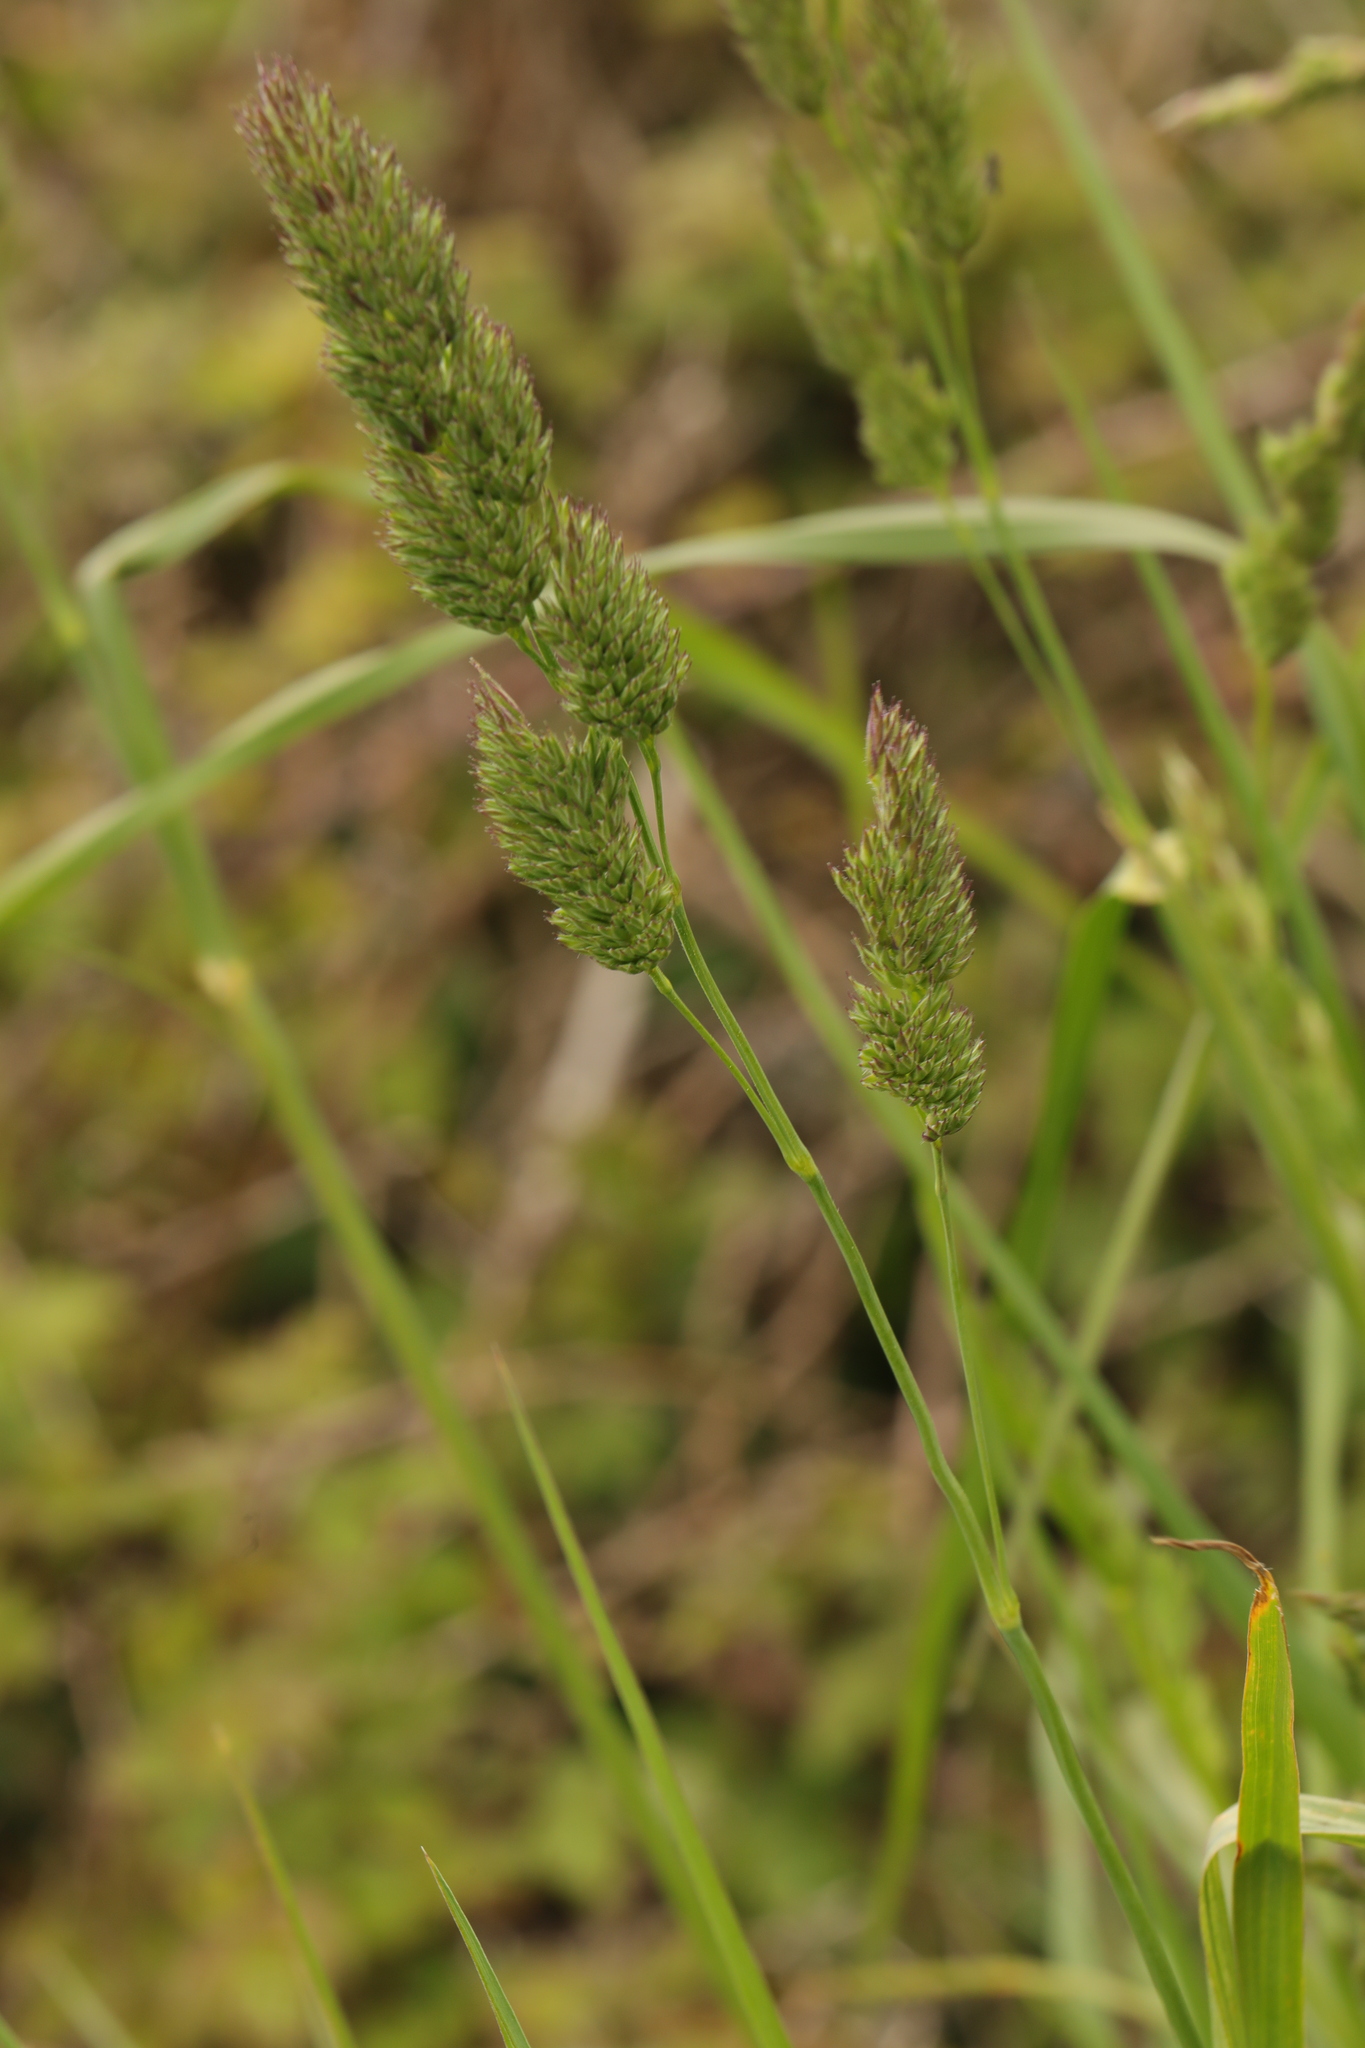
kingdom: Plantae
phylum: Tracheophyta
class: Liliopsida
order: Poales
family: Poaceae
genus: Dactylis
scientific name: Dactylis glomerata
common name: Orchardgrass
